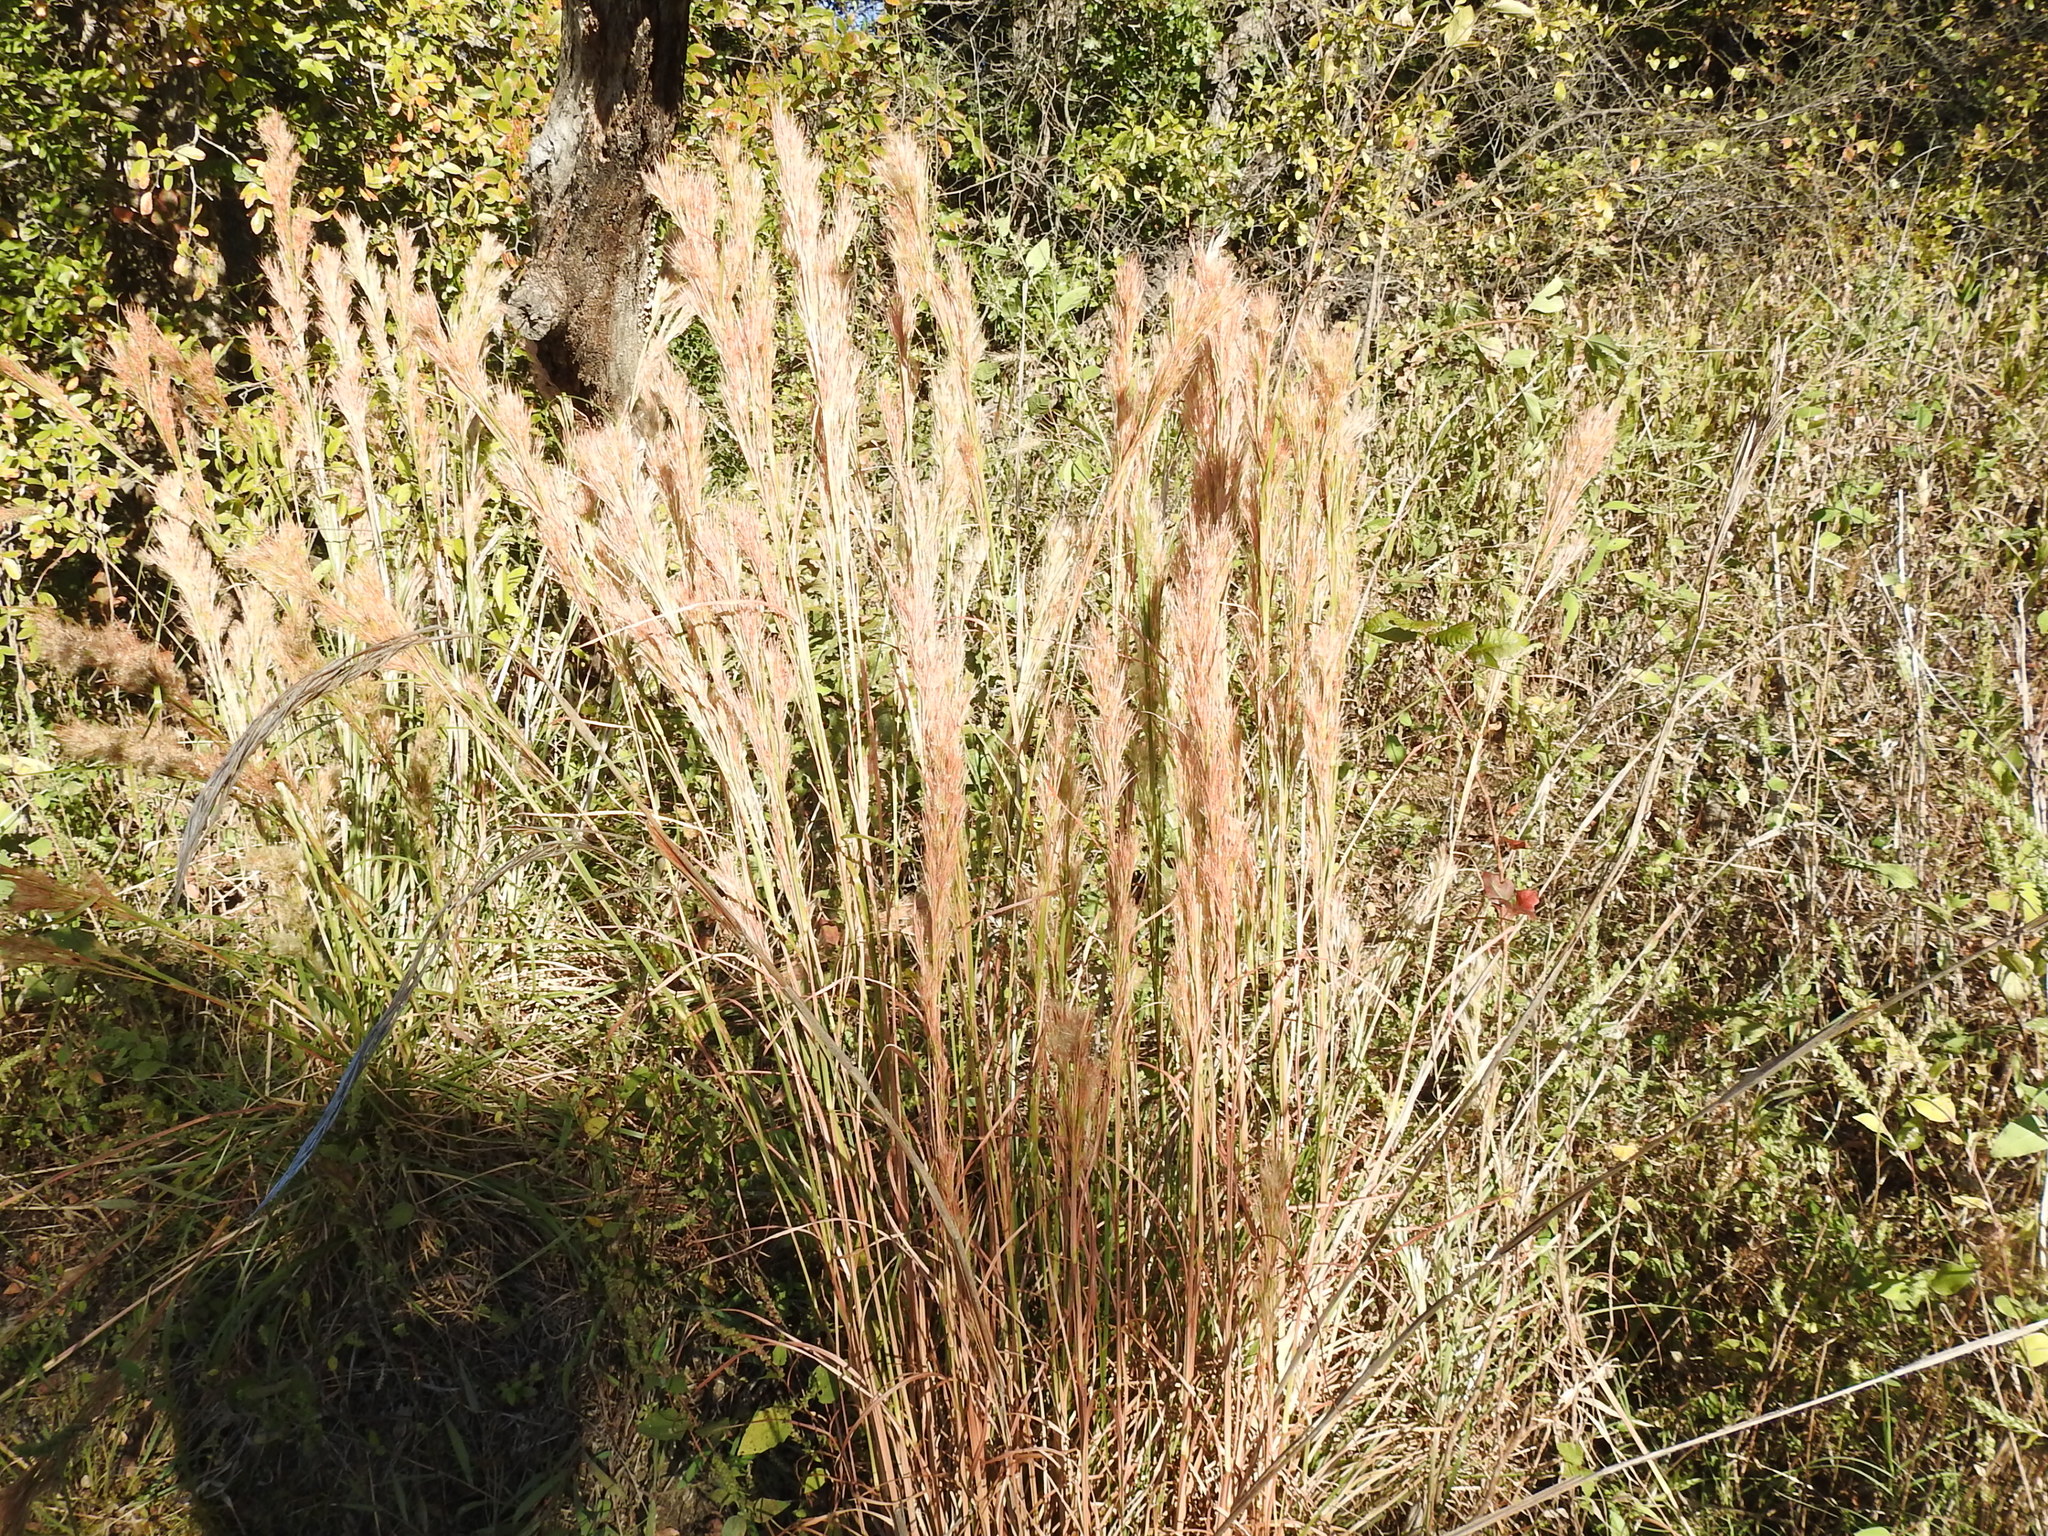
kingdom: Plantae
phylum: Tracheophyta
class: Liliopsida
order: Poales
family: Poaceae
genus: Andropogon
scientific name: Andropogon tenuispatheus
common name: Bushy bluestem
